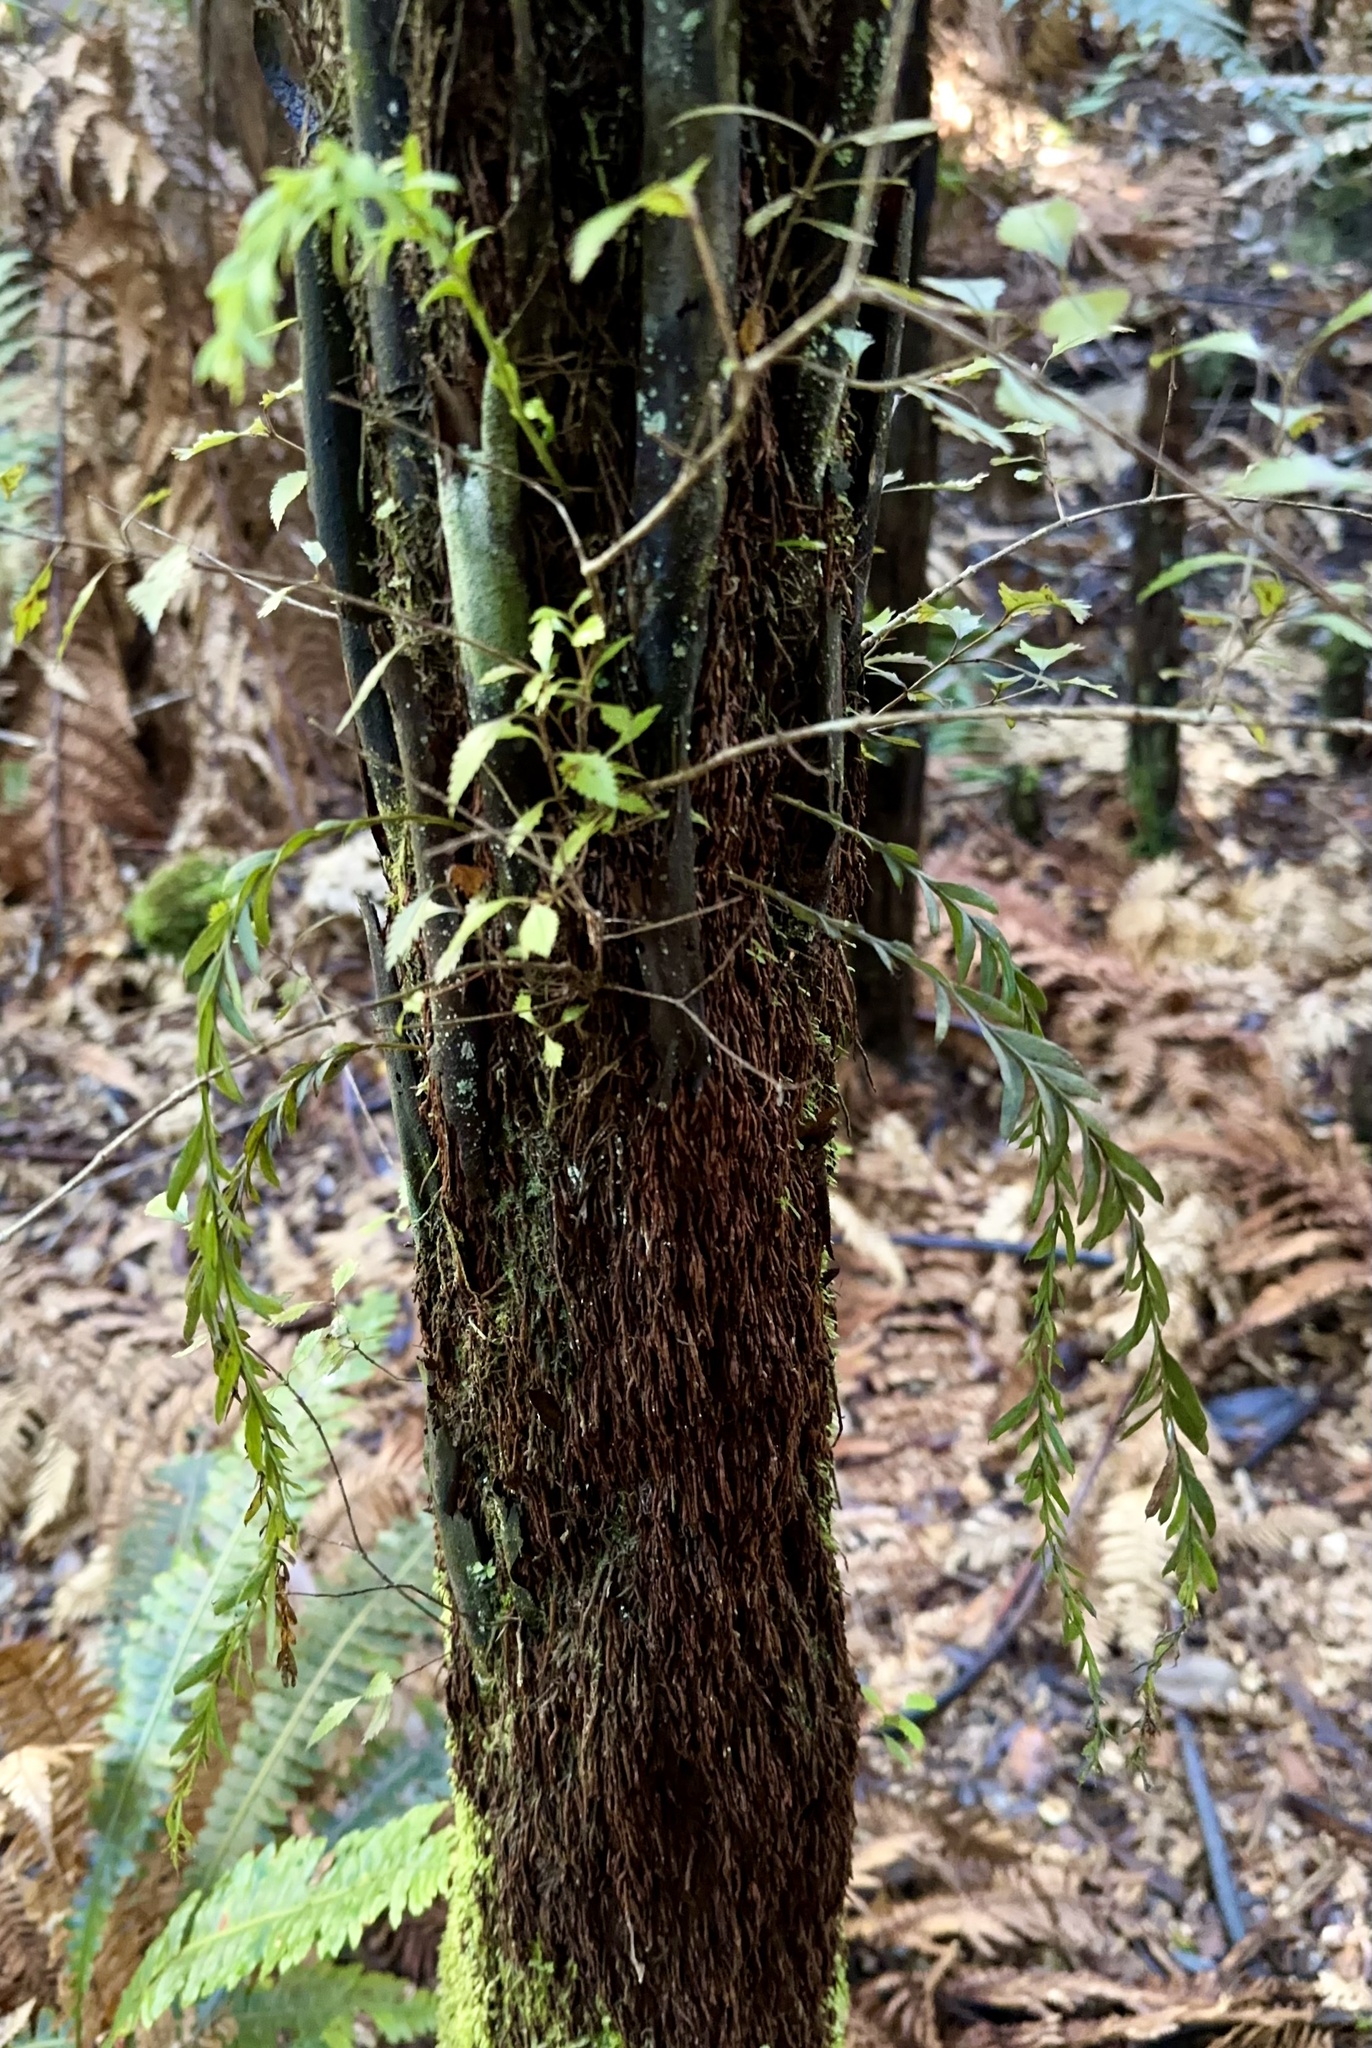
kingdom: Plantae
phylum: Tracheophyta
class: Polypodiopsida
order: Psilotales
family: Psilotaceae
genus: Tmesipteris
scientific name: Tmesipteris elongata
